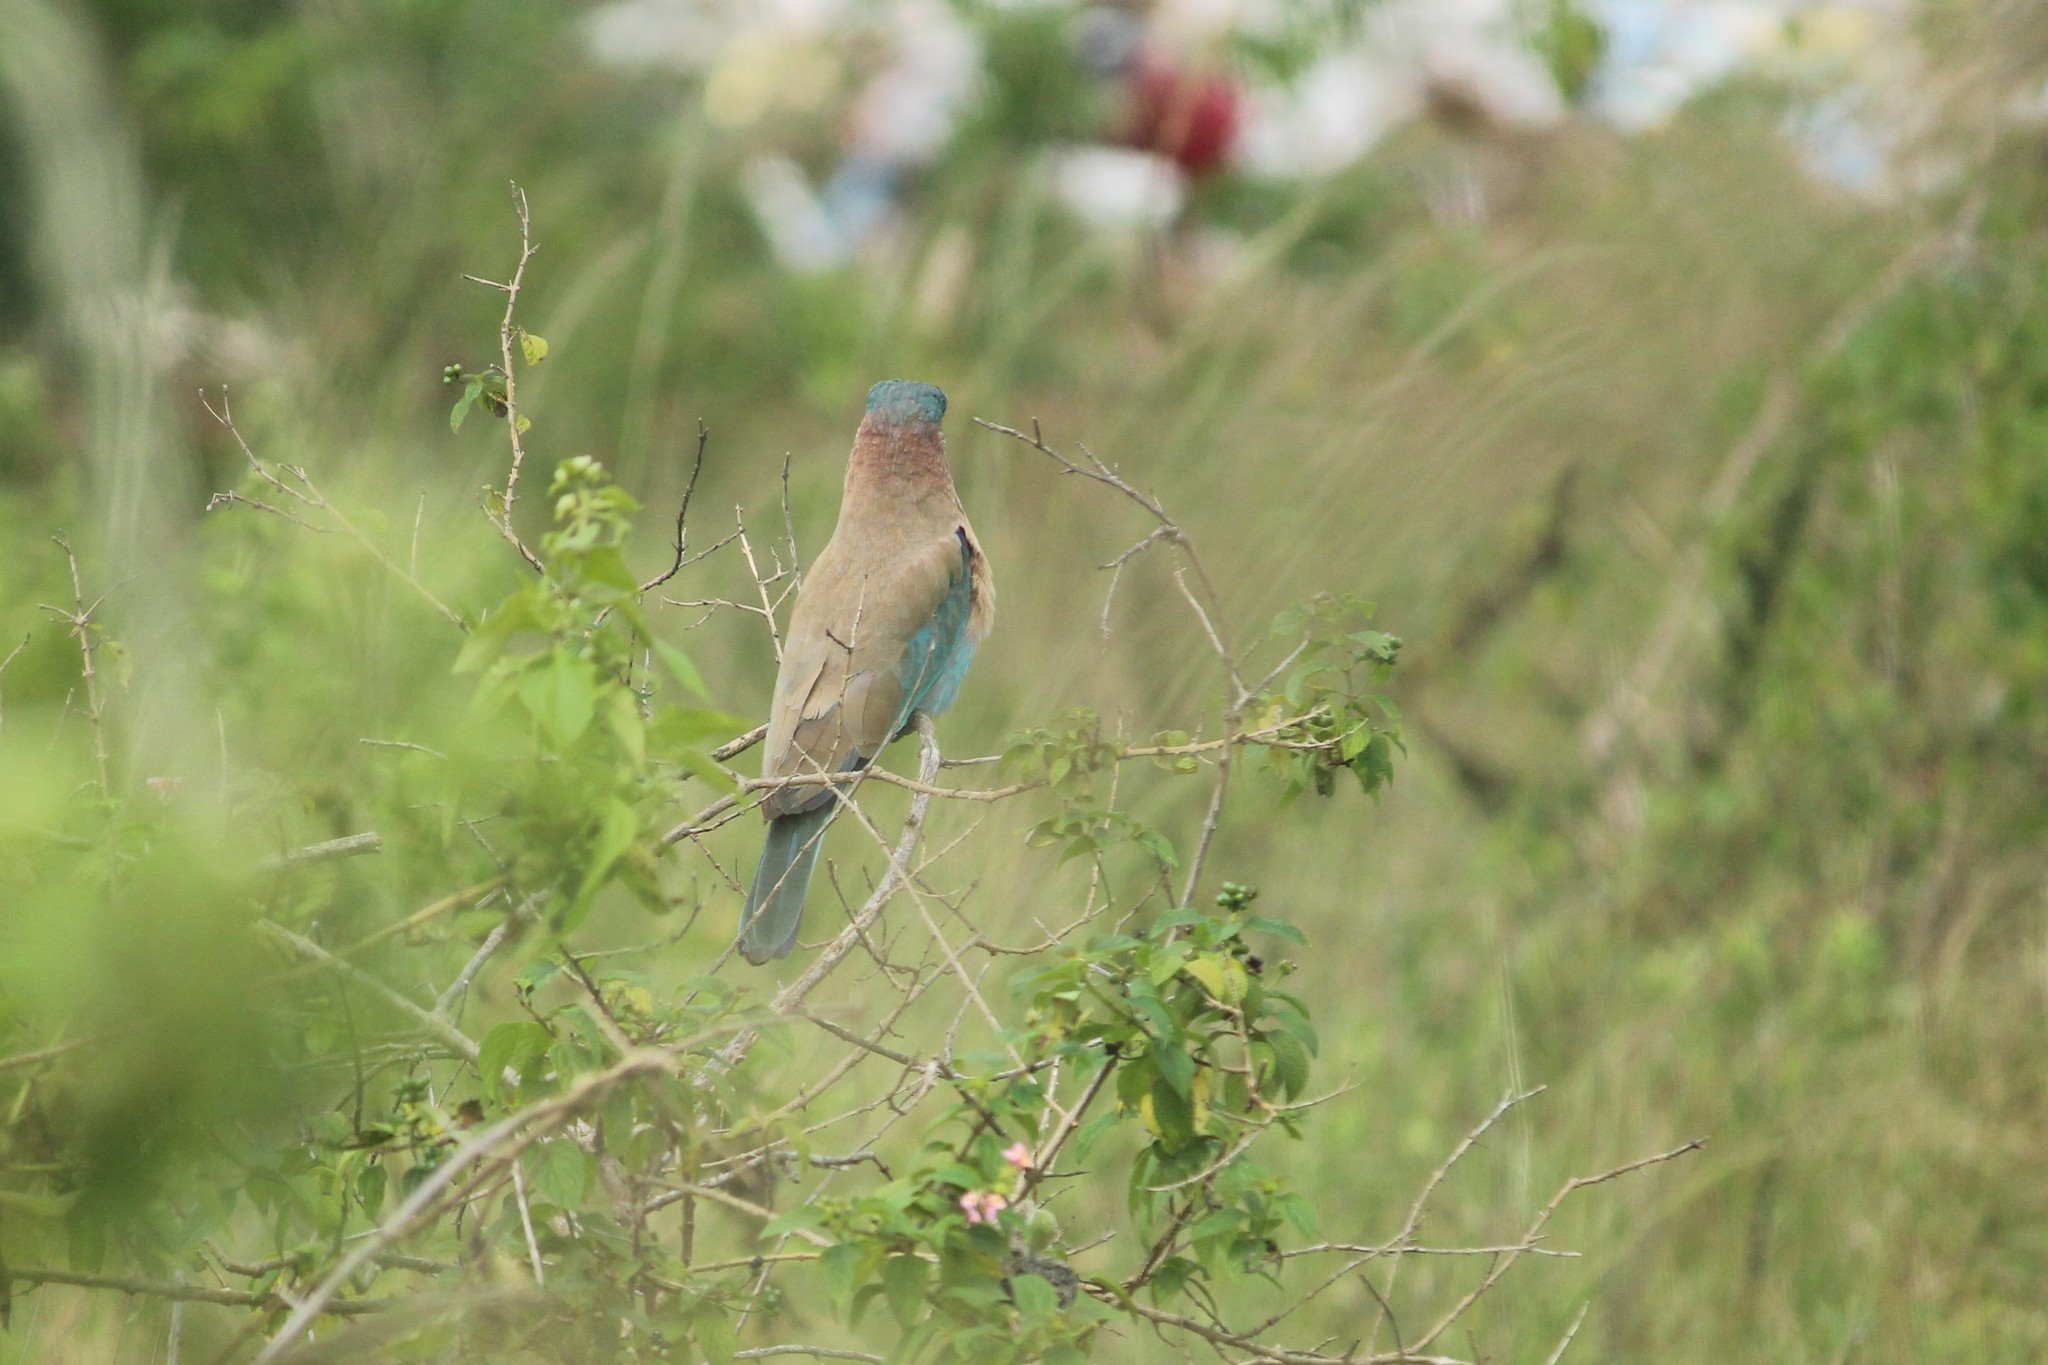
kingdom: Animalia
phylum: Chordata
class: Aves
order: Coraciiformes
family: Coraciidae
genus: Coracias
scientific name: Coracias benghalensis
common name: Indian roller
